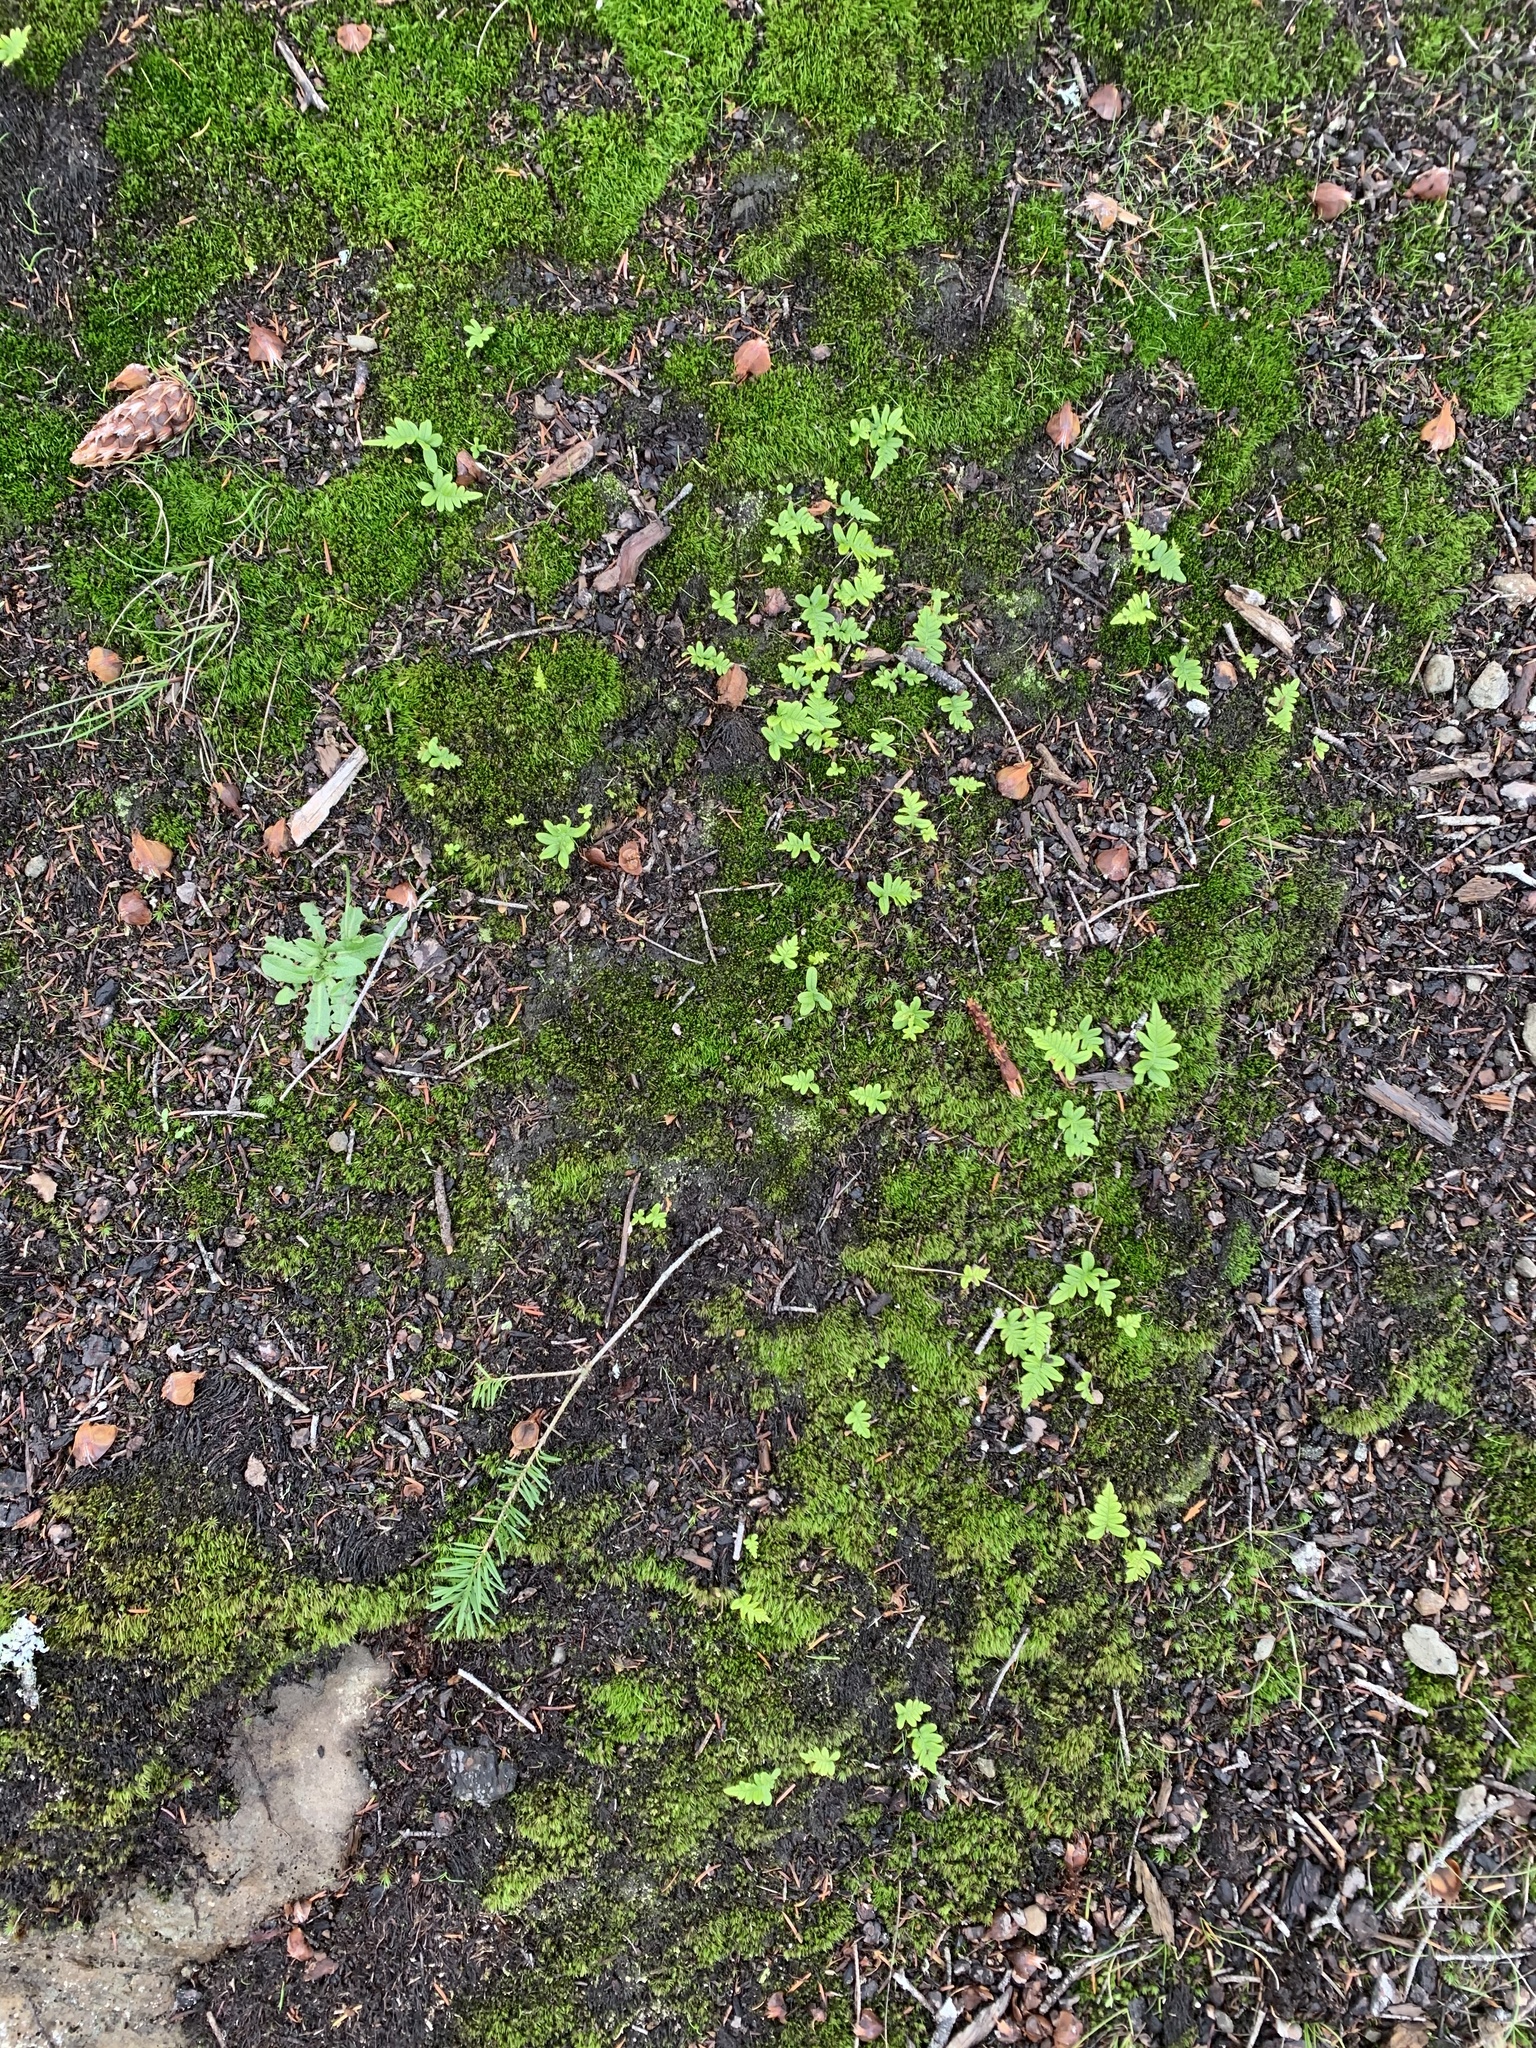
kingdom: Plantae
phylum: Tracheophyta
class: Polypodiopsida
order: Polypodiales
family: Polypodiaceae
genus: Polypodium
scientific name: Polypodium glycyrrhiza
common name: Licorice fern
